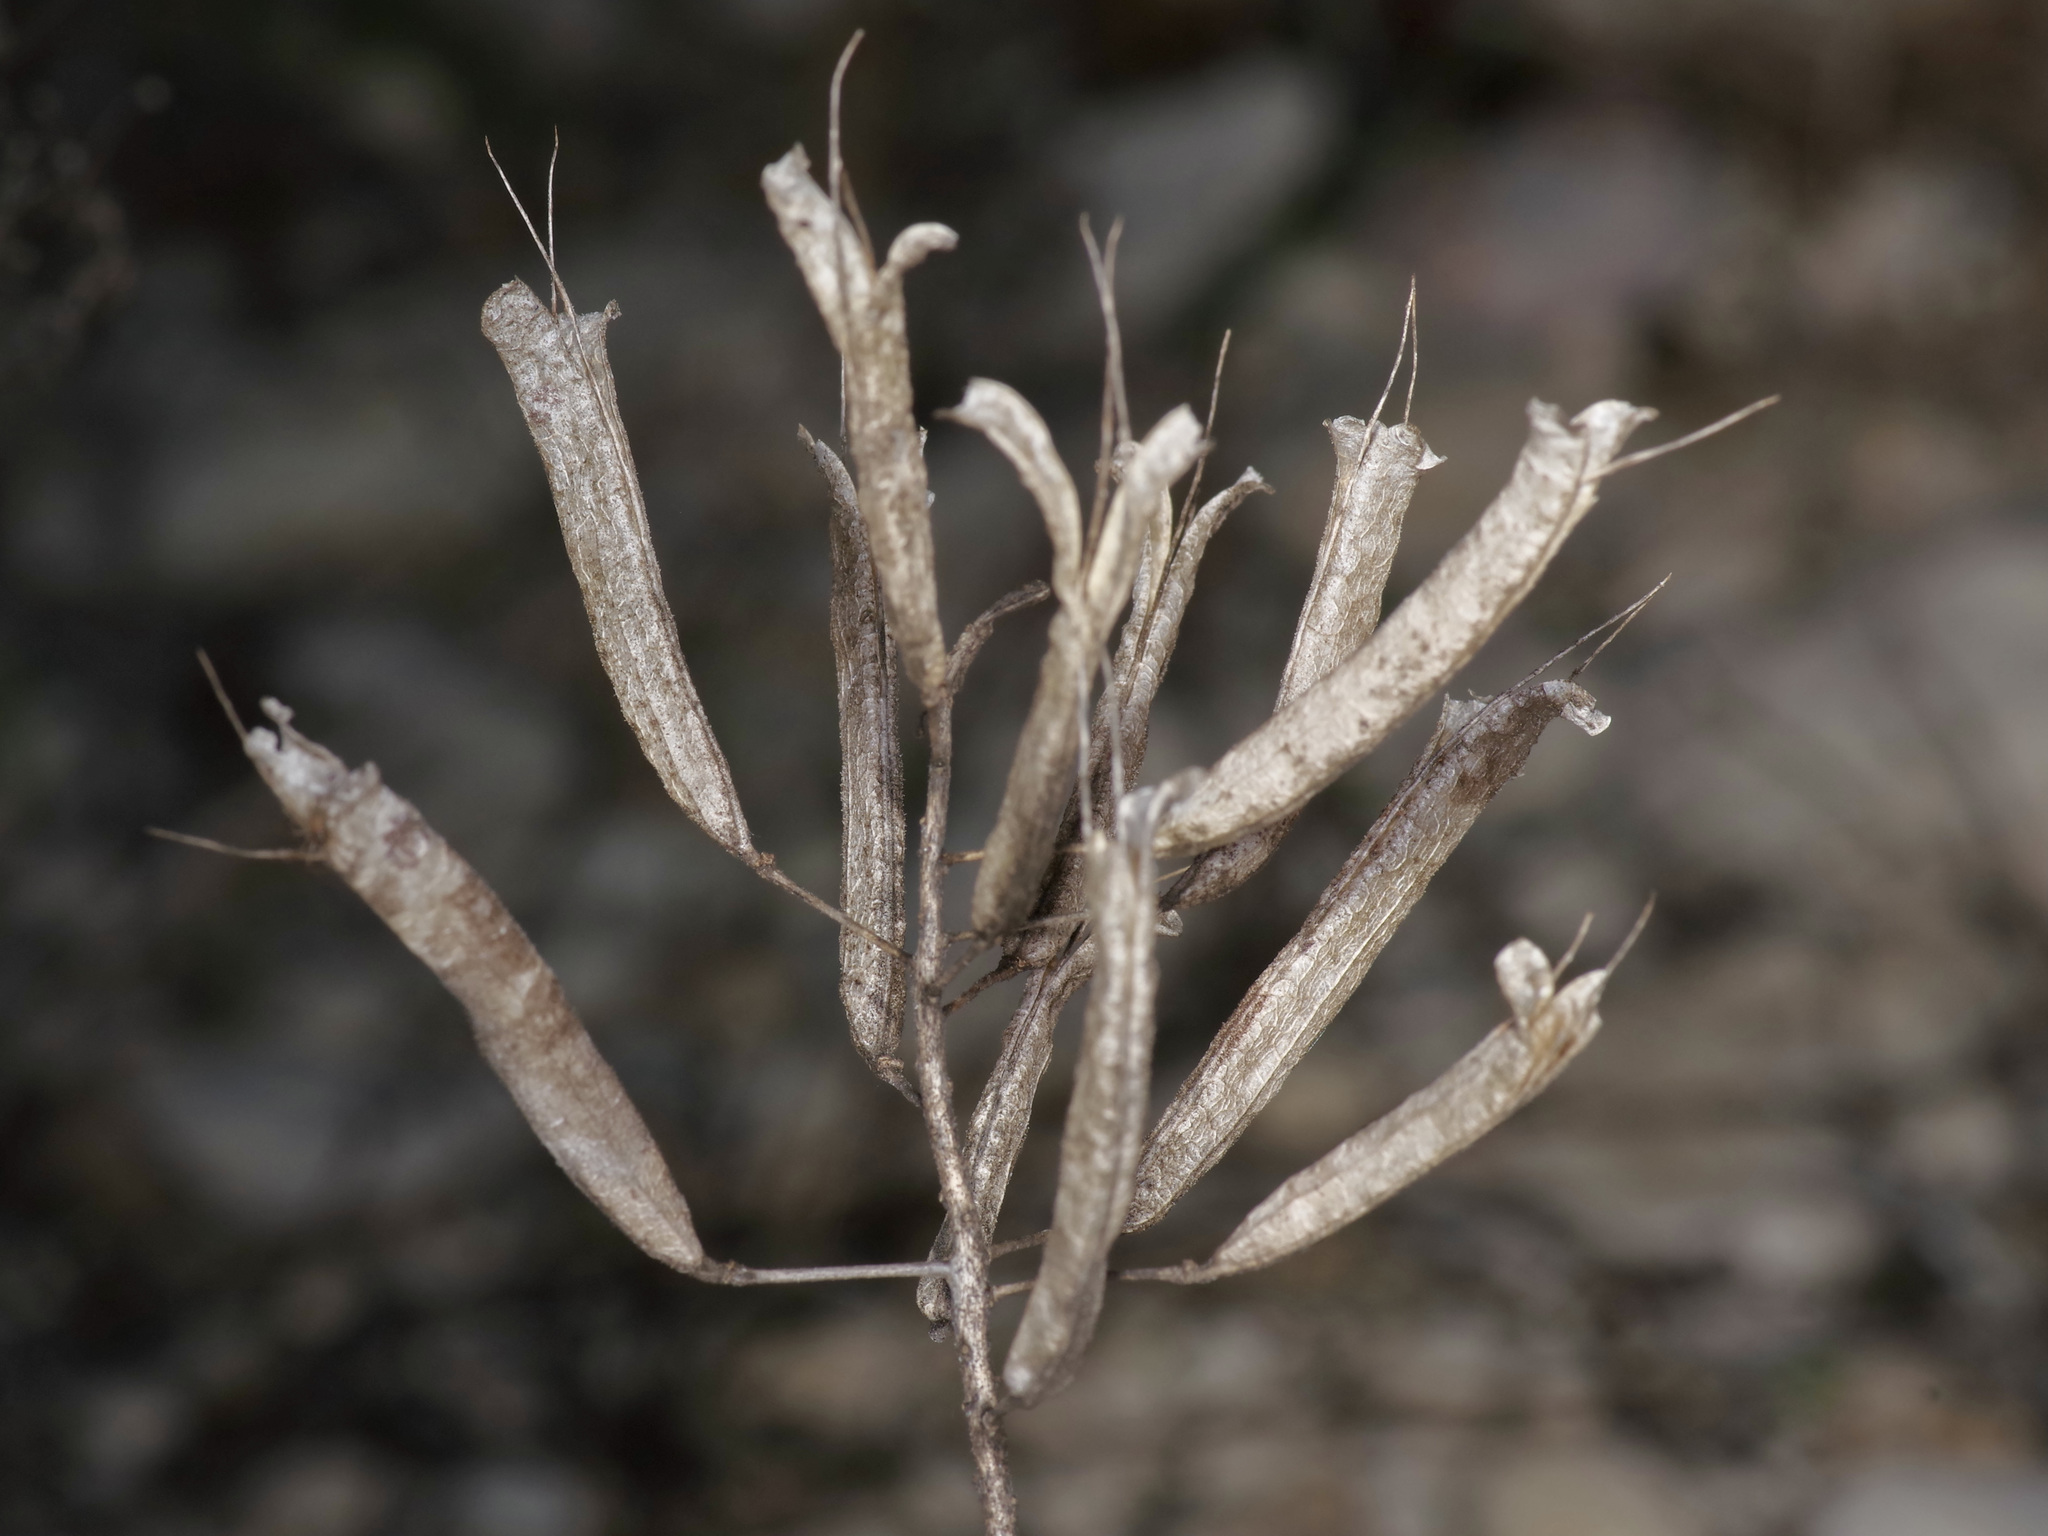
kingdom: Plantae
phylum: Tracheophyta
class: Magnoliopsida
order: Brassicales
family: Cleomaceae
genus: Polanisia
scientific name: Polanisia dodecandra
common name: Clammyweed
